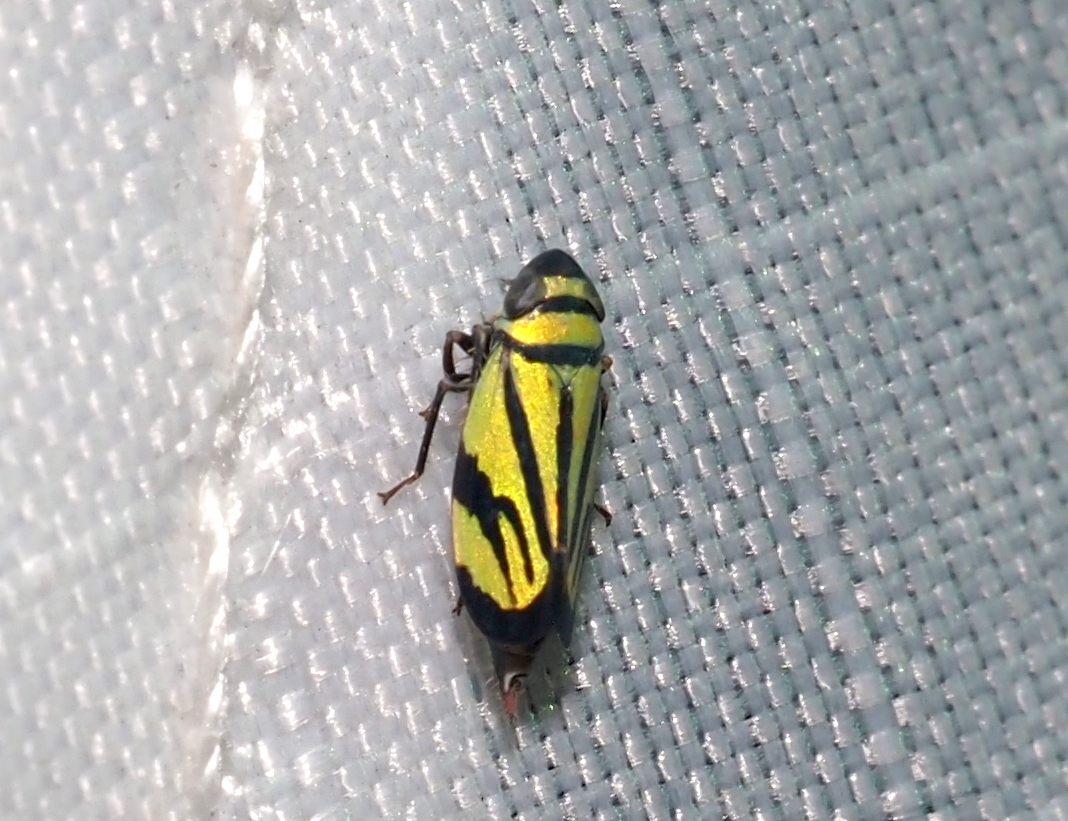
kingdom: Animalia
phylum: Arthropoda
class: Insecta
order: Hemiptera
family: Cicadellidae
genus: Stirellus
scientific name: Stirellus bicolor
